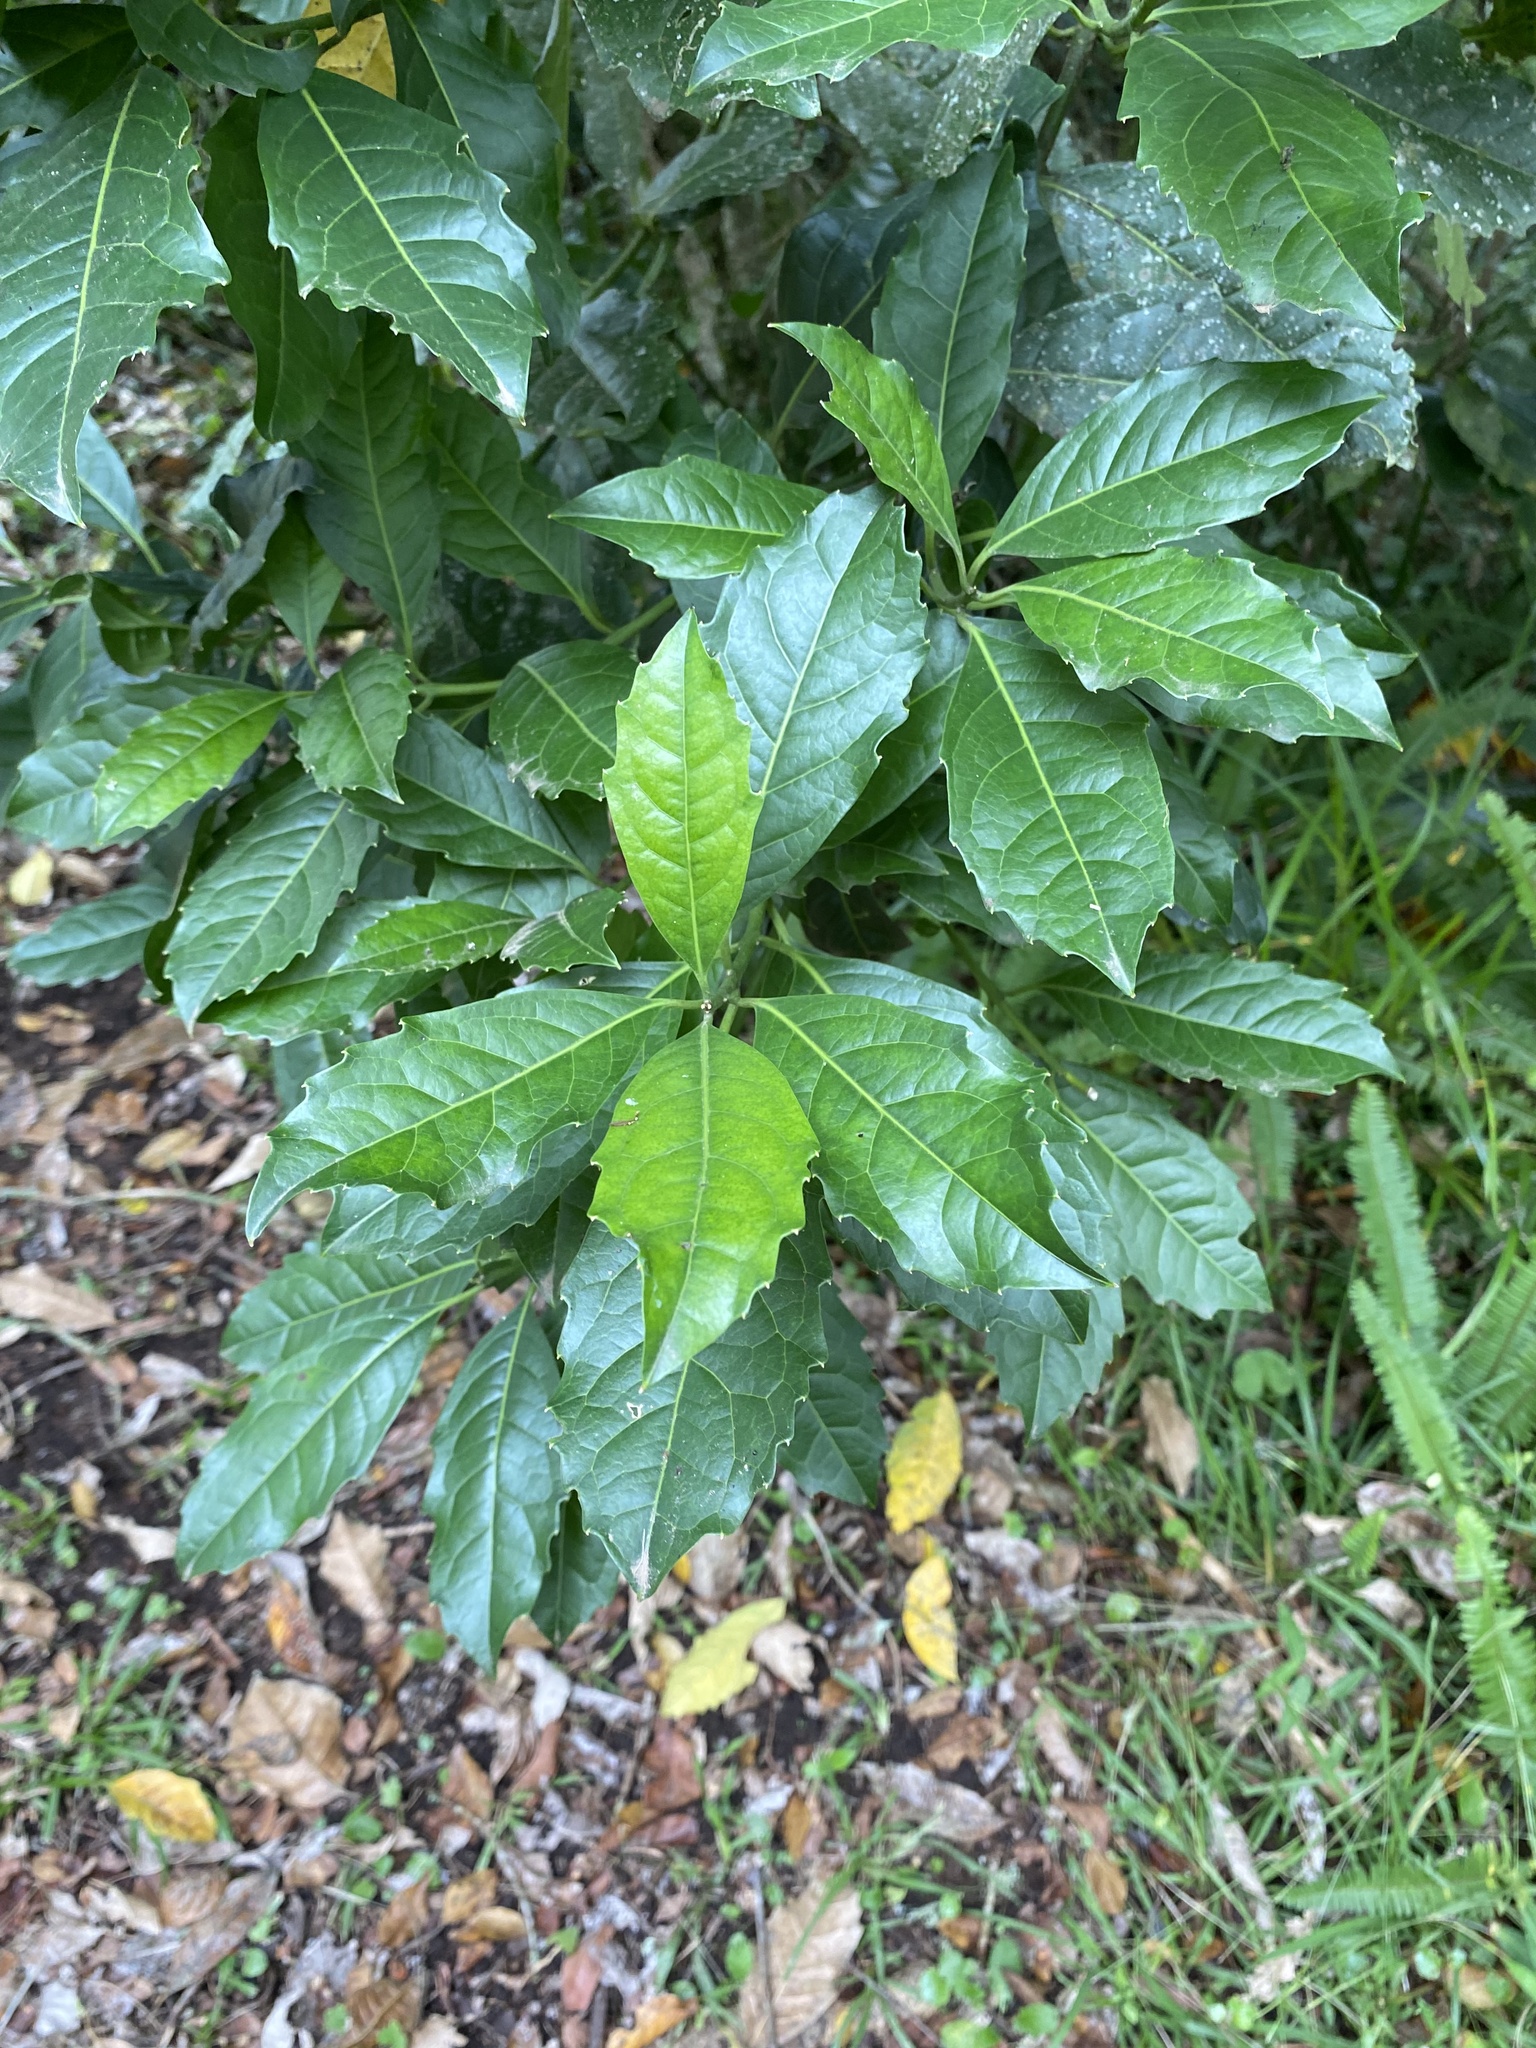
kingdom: Plantae
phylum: Tracheophyta
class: Magnoliopsida
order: Laurales
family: Monimiaceae
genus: Xymalos
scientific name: Xymalos monospora
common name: Lemonwood
